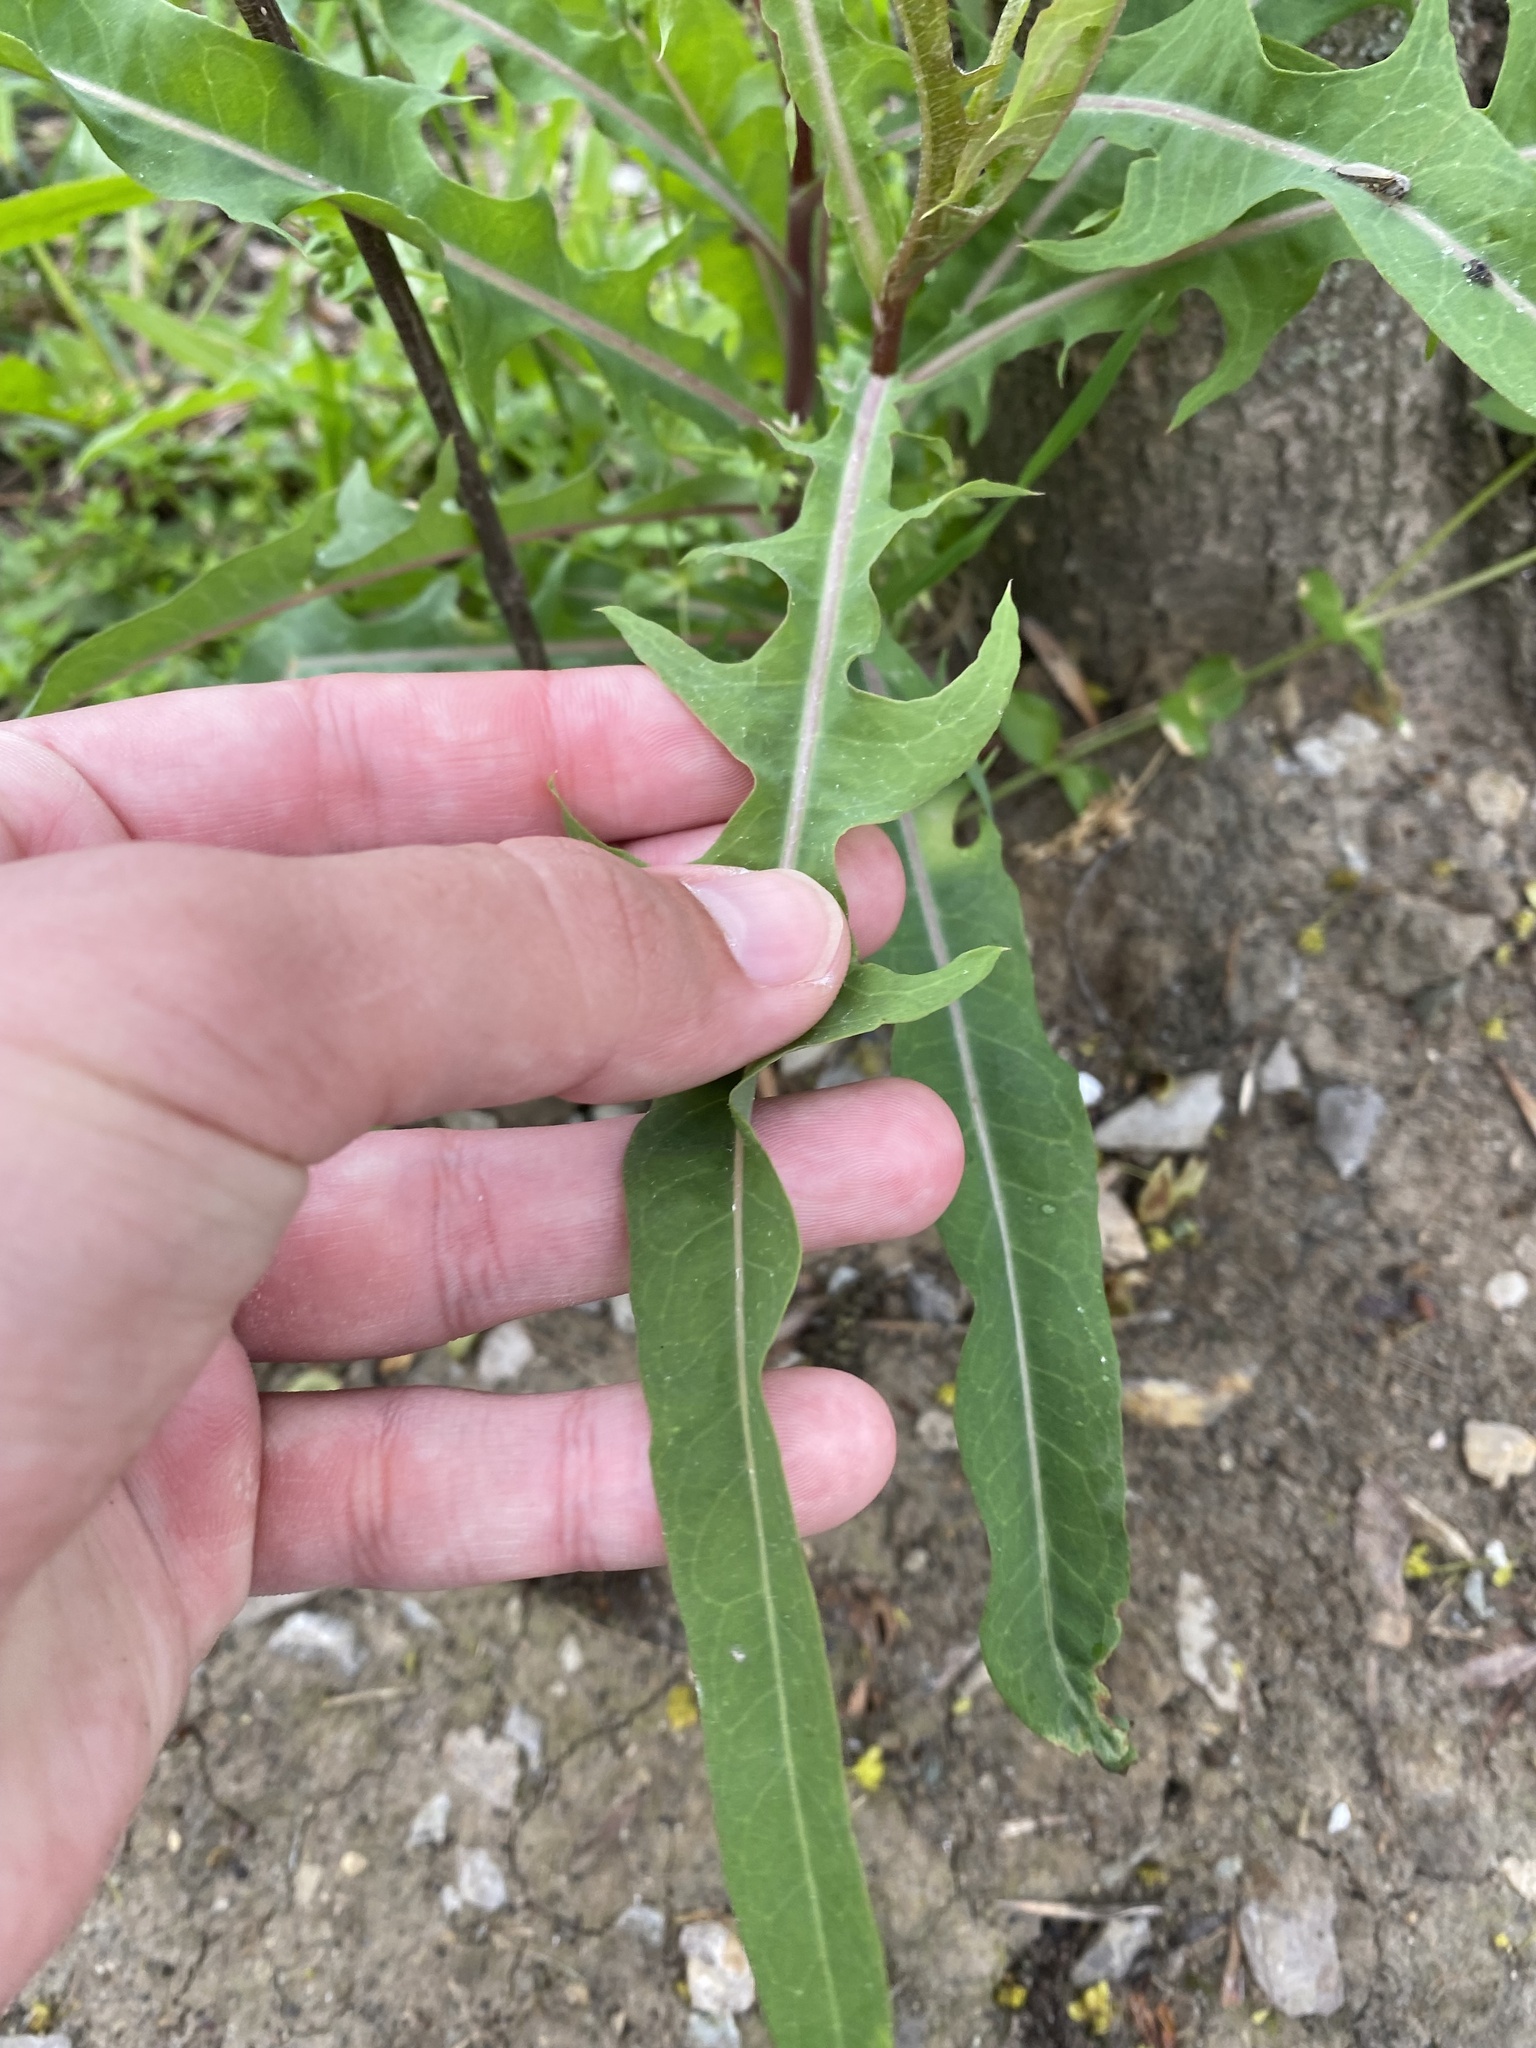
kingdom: Plantae
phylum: Tracheophyta
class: Magnoliopsida
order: Asterales
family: Asteraceae
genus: Lactuca
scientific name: Lactuca tatarica
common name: Blue lettuce
